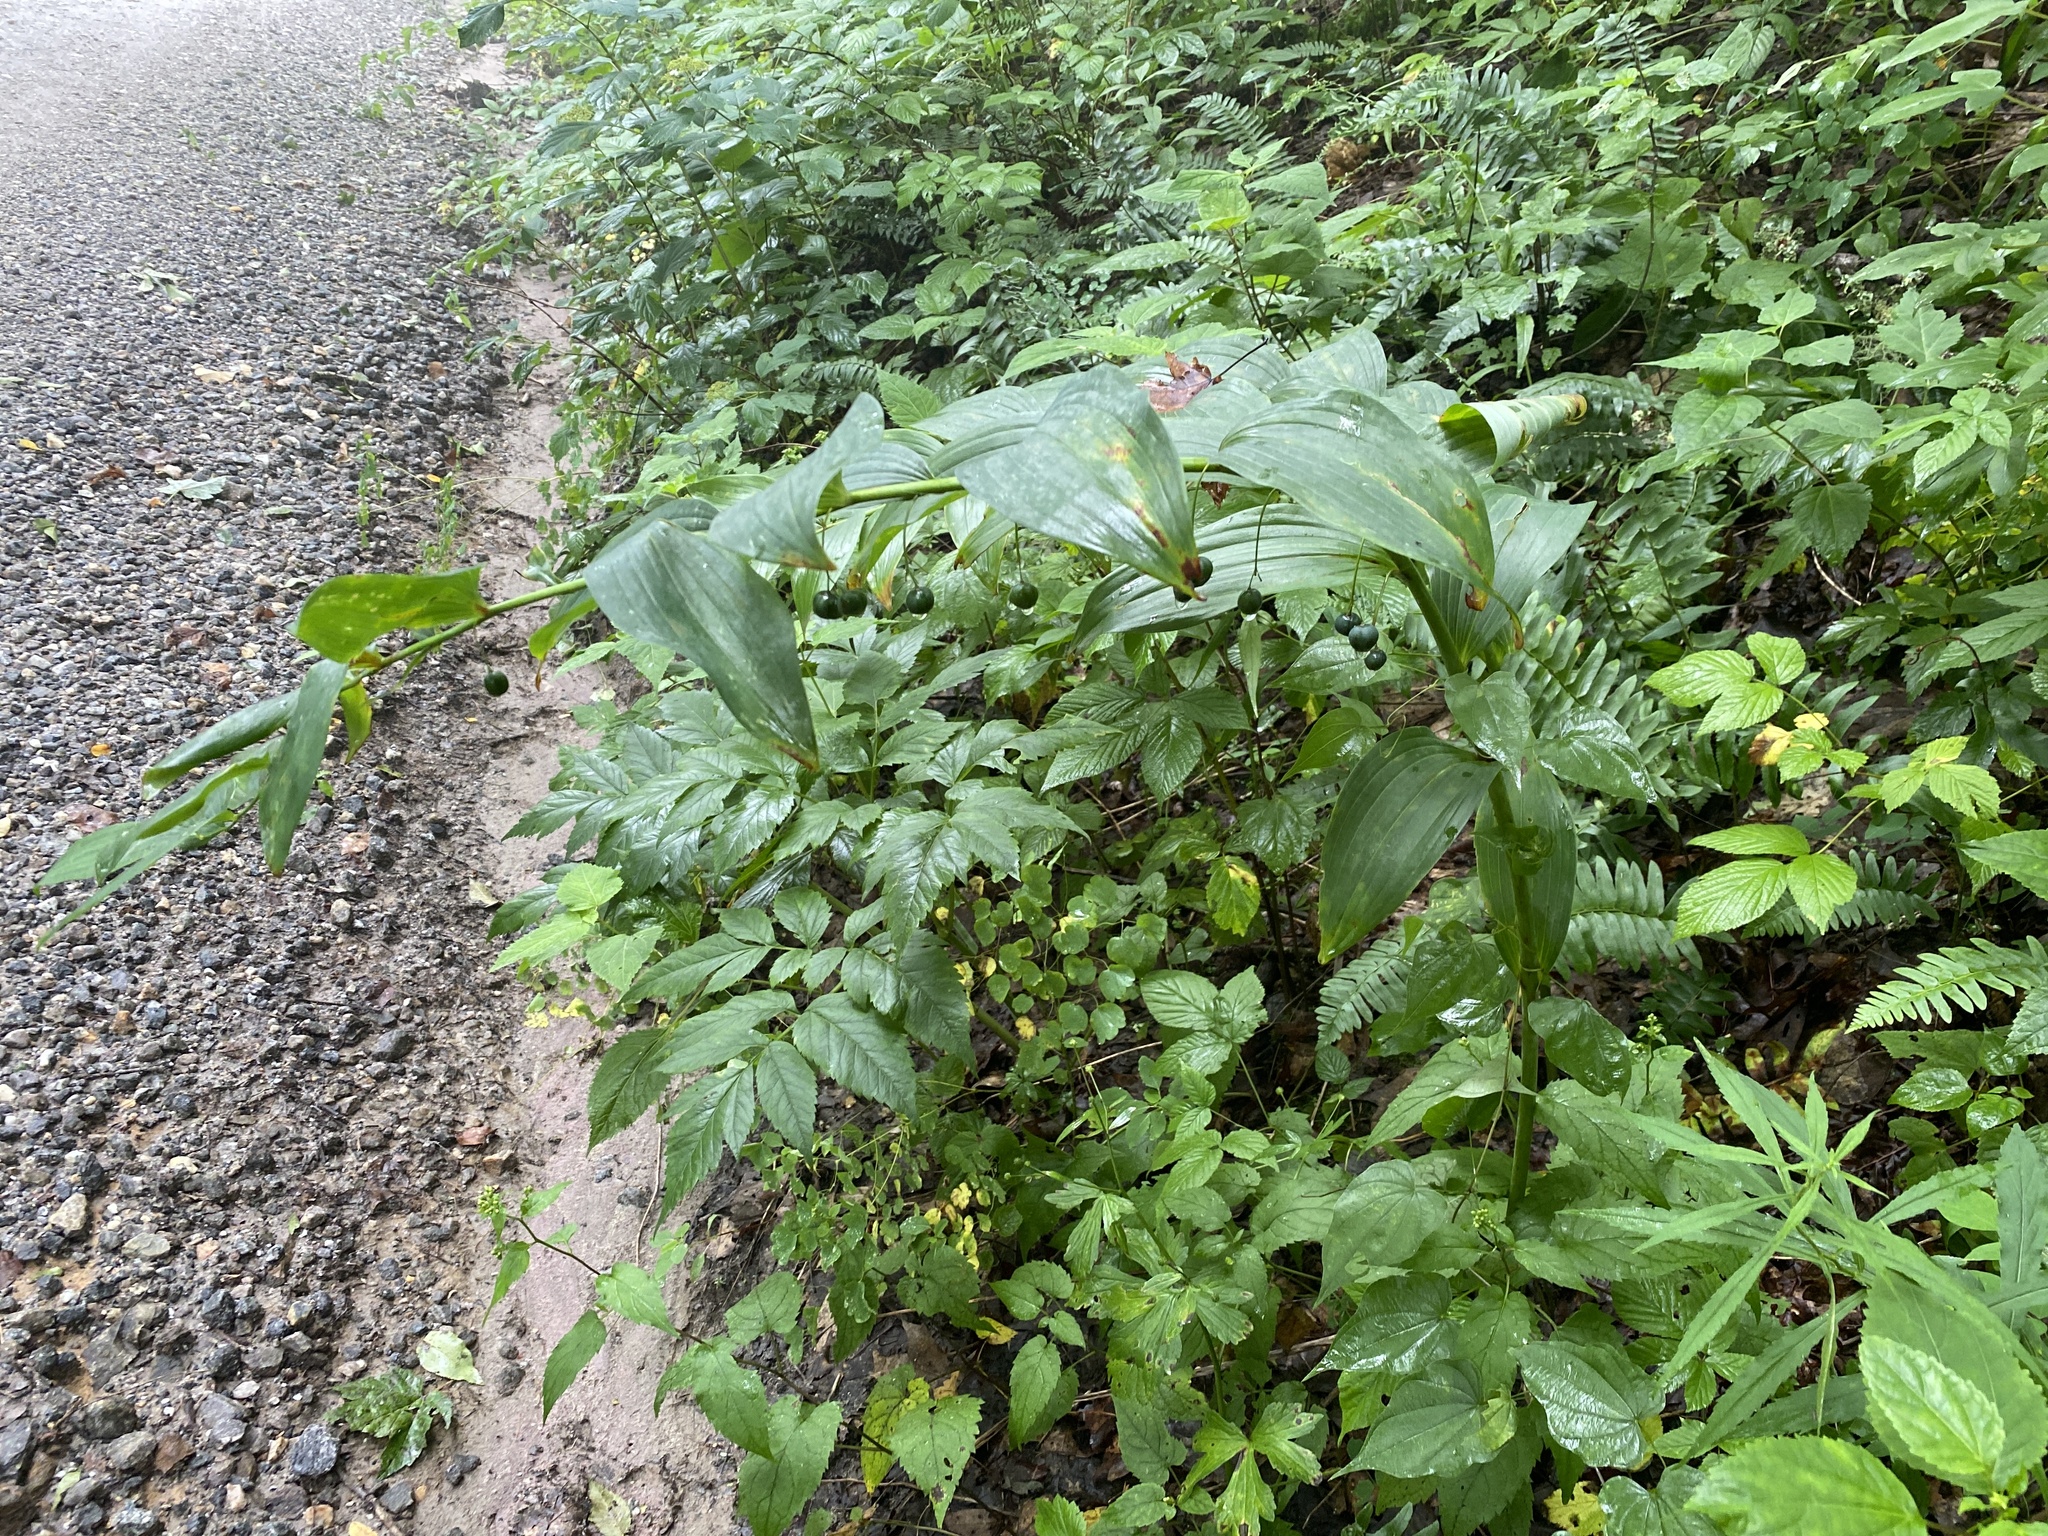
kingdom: Plantae
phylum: Tracheophyta
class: Liliopsida
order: Asparagales
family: Asparagaceae
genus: Polygonatum
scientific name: Polygonatum biflorum
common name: American solomon's-seal
